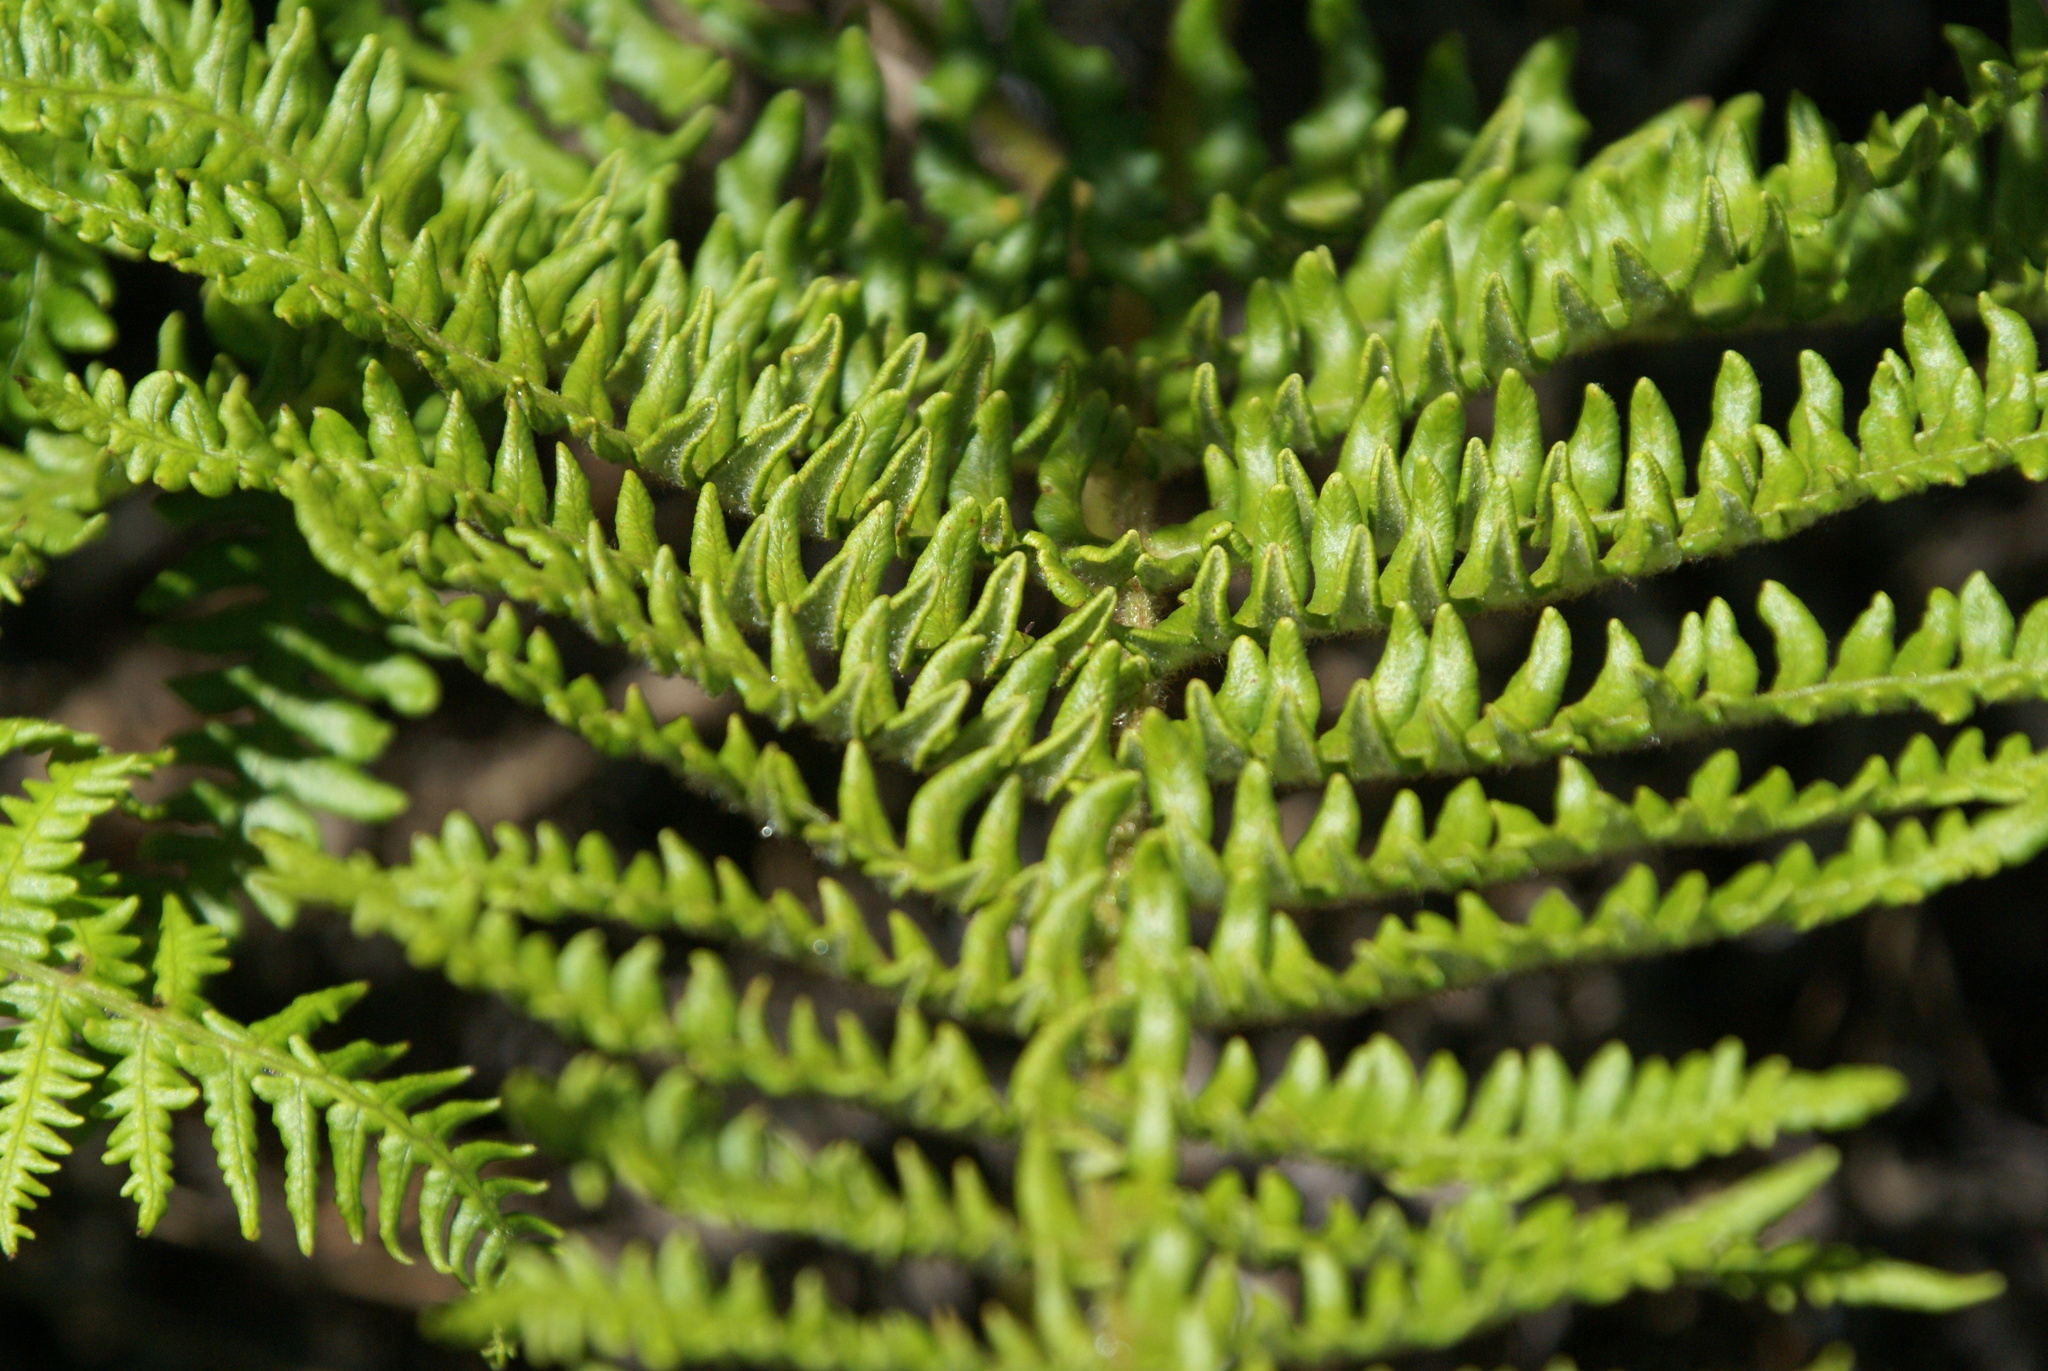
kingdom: Plantae
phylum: Tracheophyta
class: Polypodiopsida
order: Polypodiales
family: Dennstaedtiaceae
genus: Pteridium
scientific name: Pteridium aquilinum
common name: Bracken
